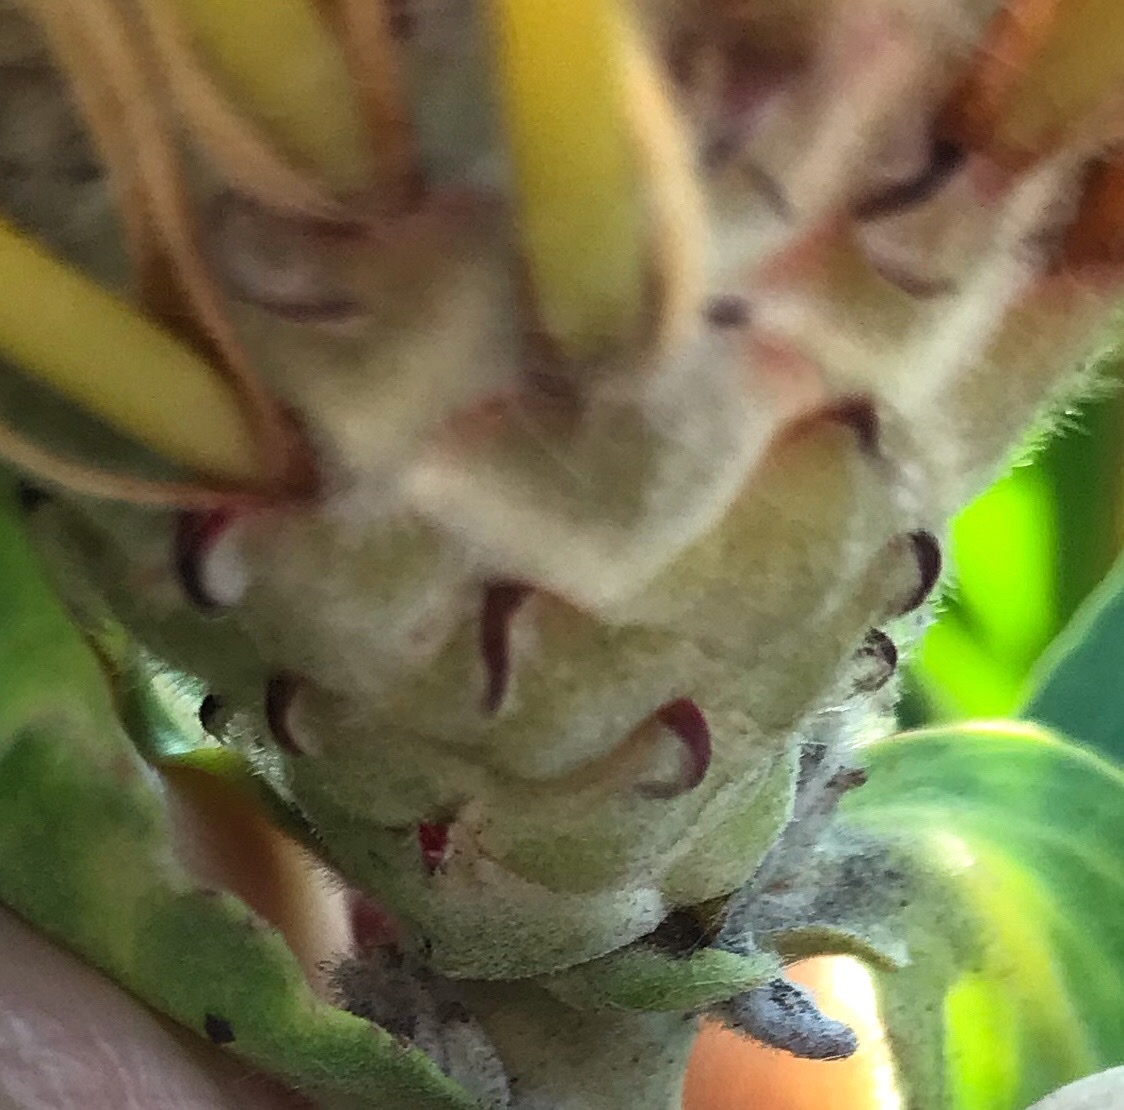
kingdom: Plantae
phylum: Tracheophyta
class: Magnoliopsida
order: Proteales
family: Proteaceae
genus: Leucospermum
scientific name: Leucospermum glabrum
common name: Outeniqua pincushion
